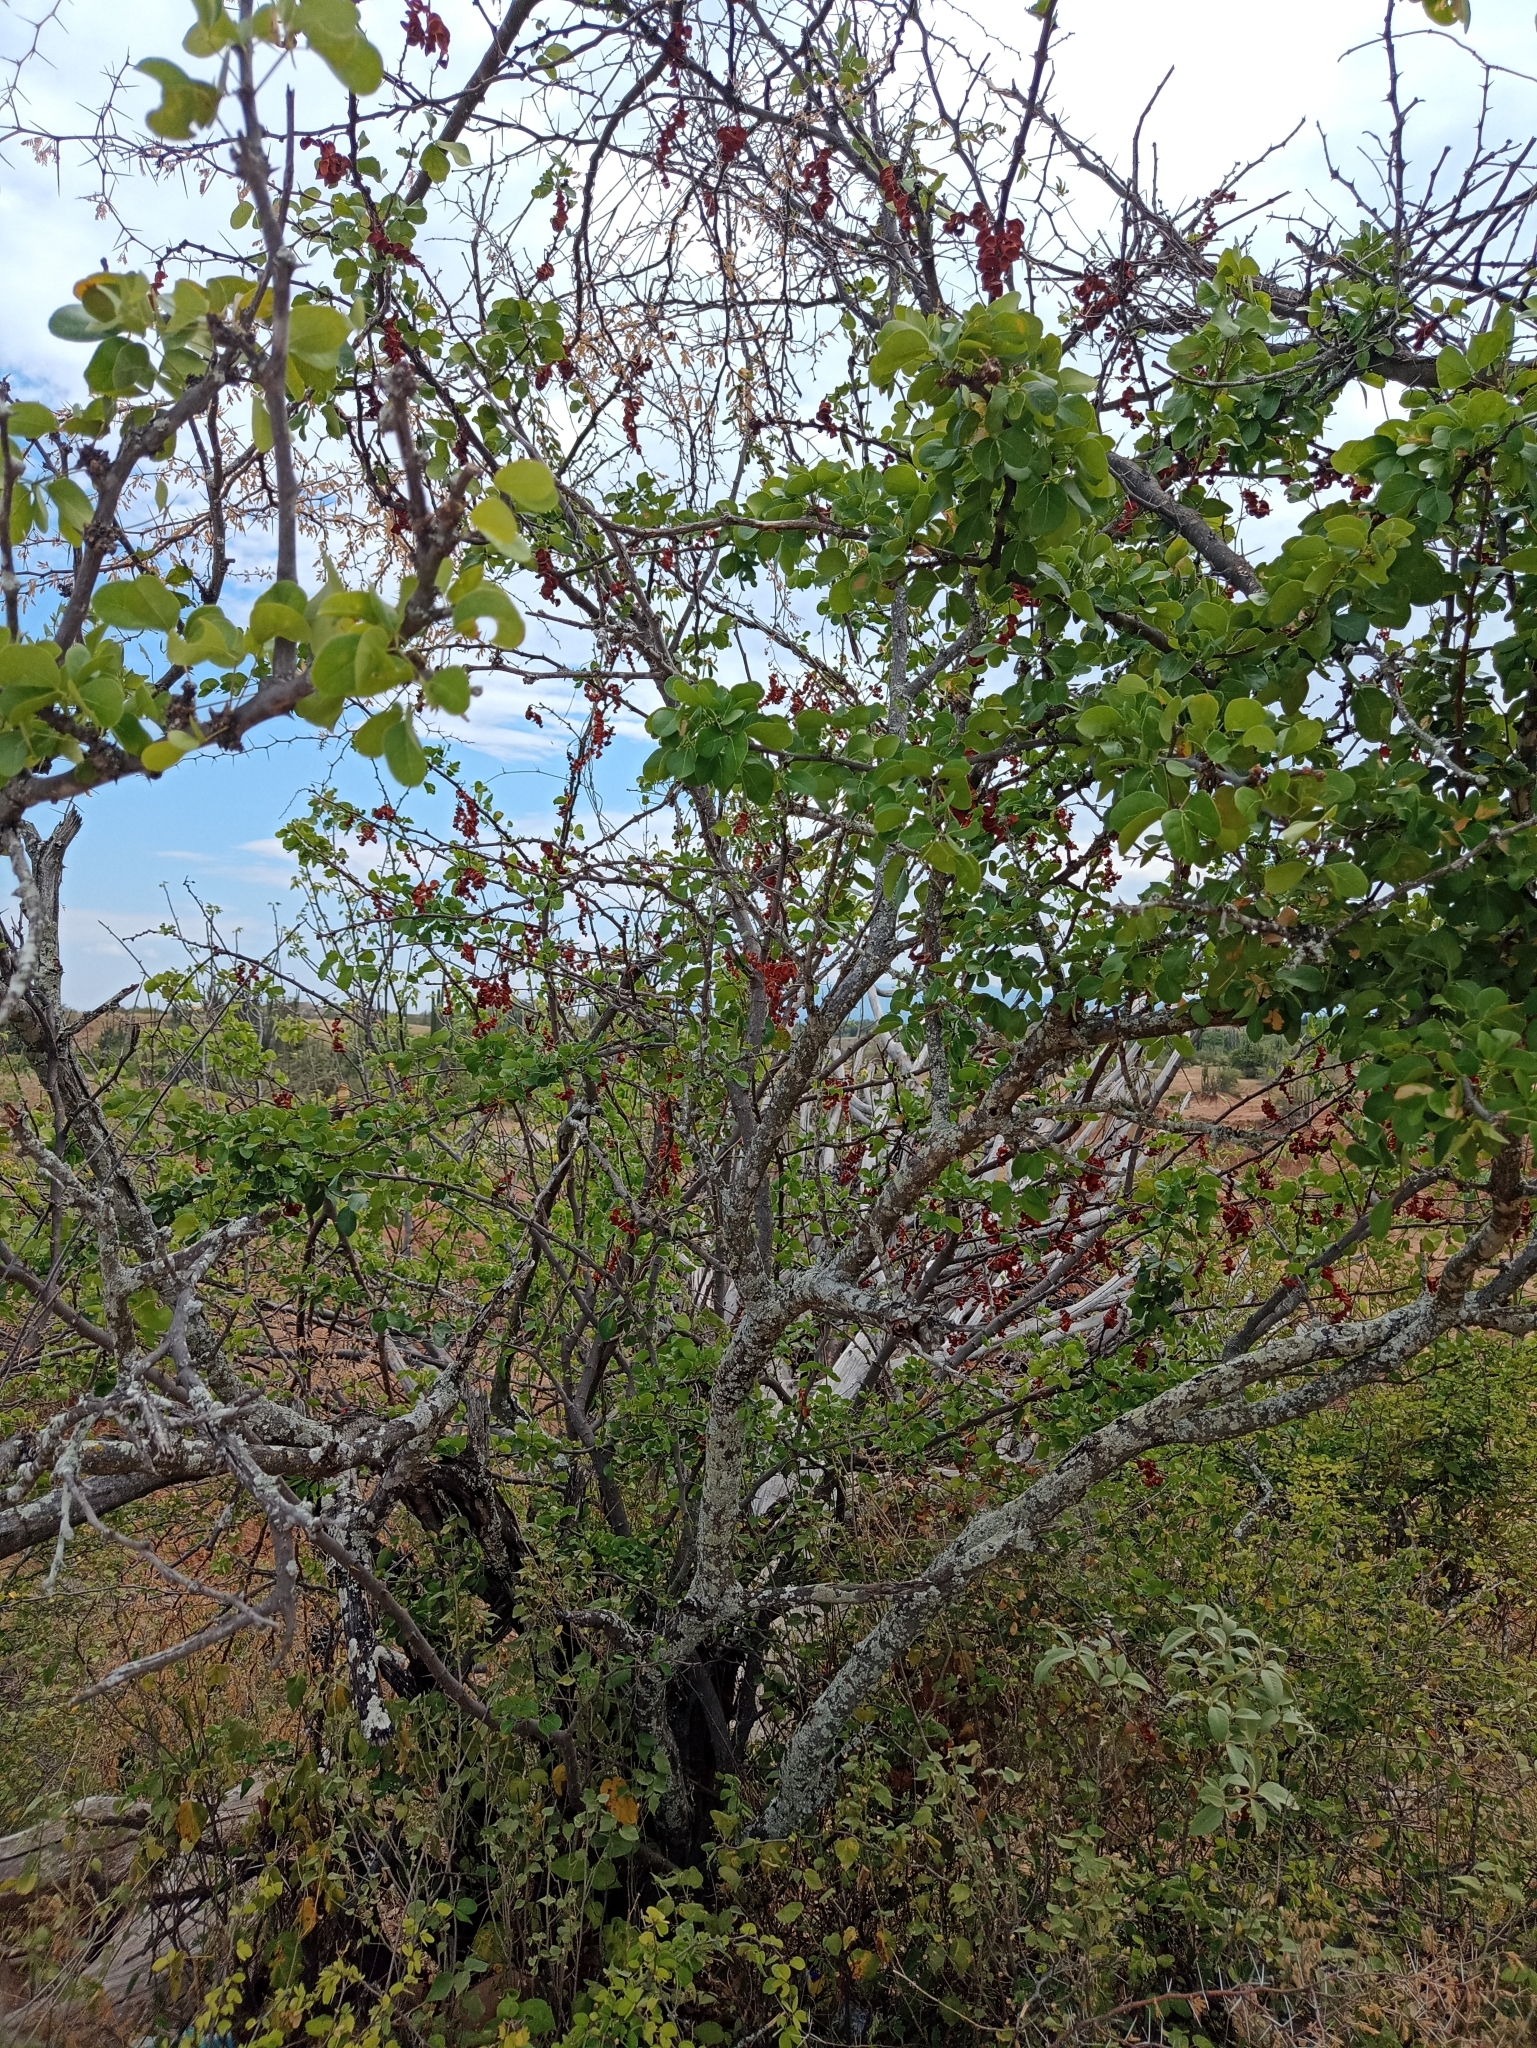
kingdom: Plantae
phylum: Tracheophyta
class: Magnoliopsida
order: Fabales
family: Fabaceae
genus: Pithecellobium
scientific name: Pithecellobium dulce
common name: Monkeypod
